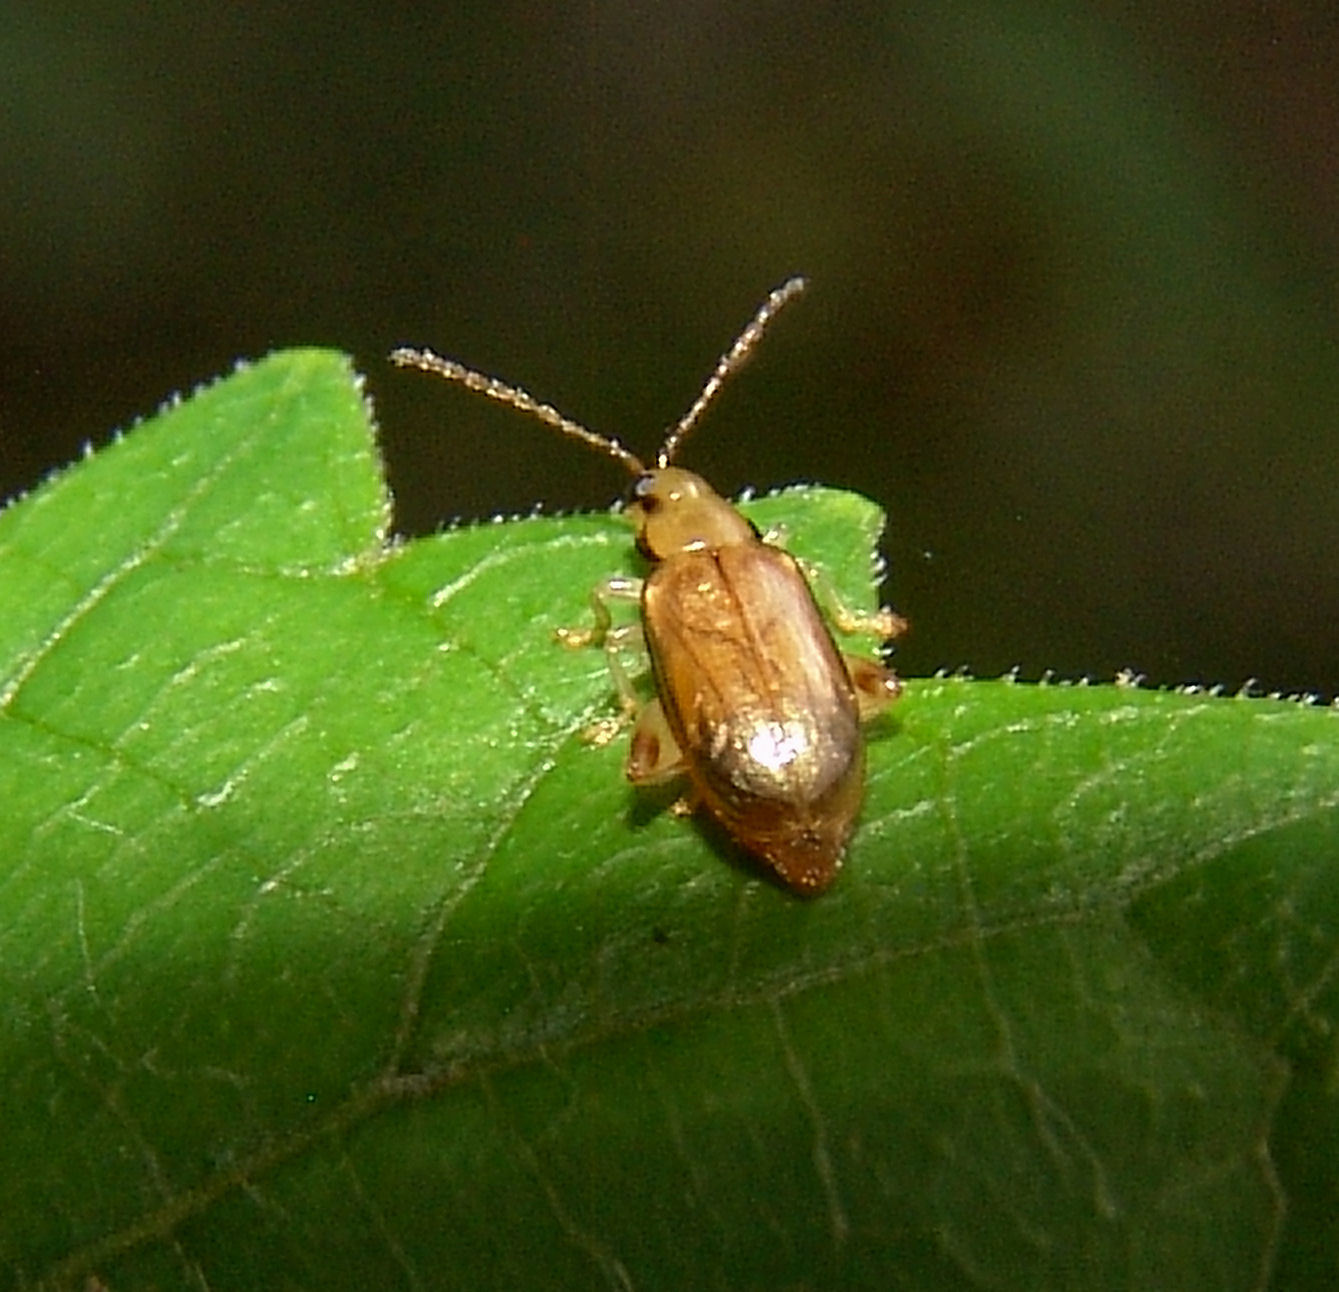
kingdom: Animalia
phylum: Arthropoda
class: Insecta
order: Coleoptera
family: Chrysomelidae
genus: Systena
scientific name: Systena marginalis
